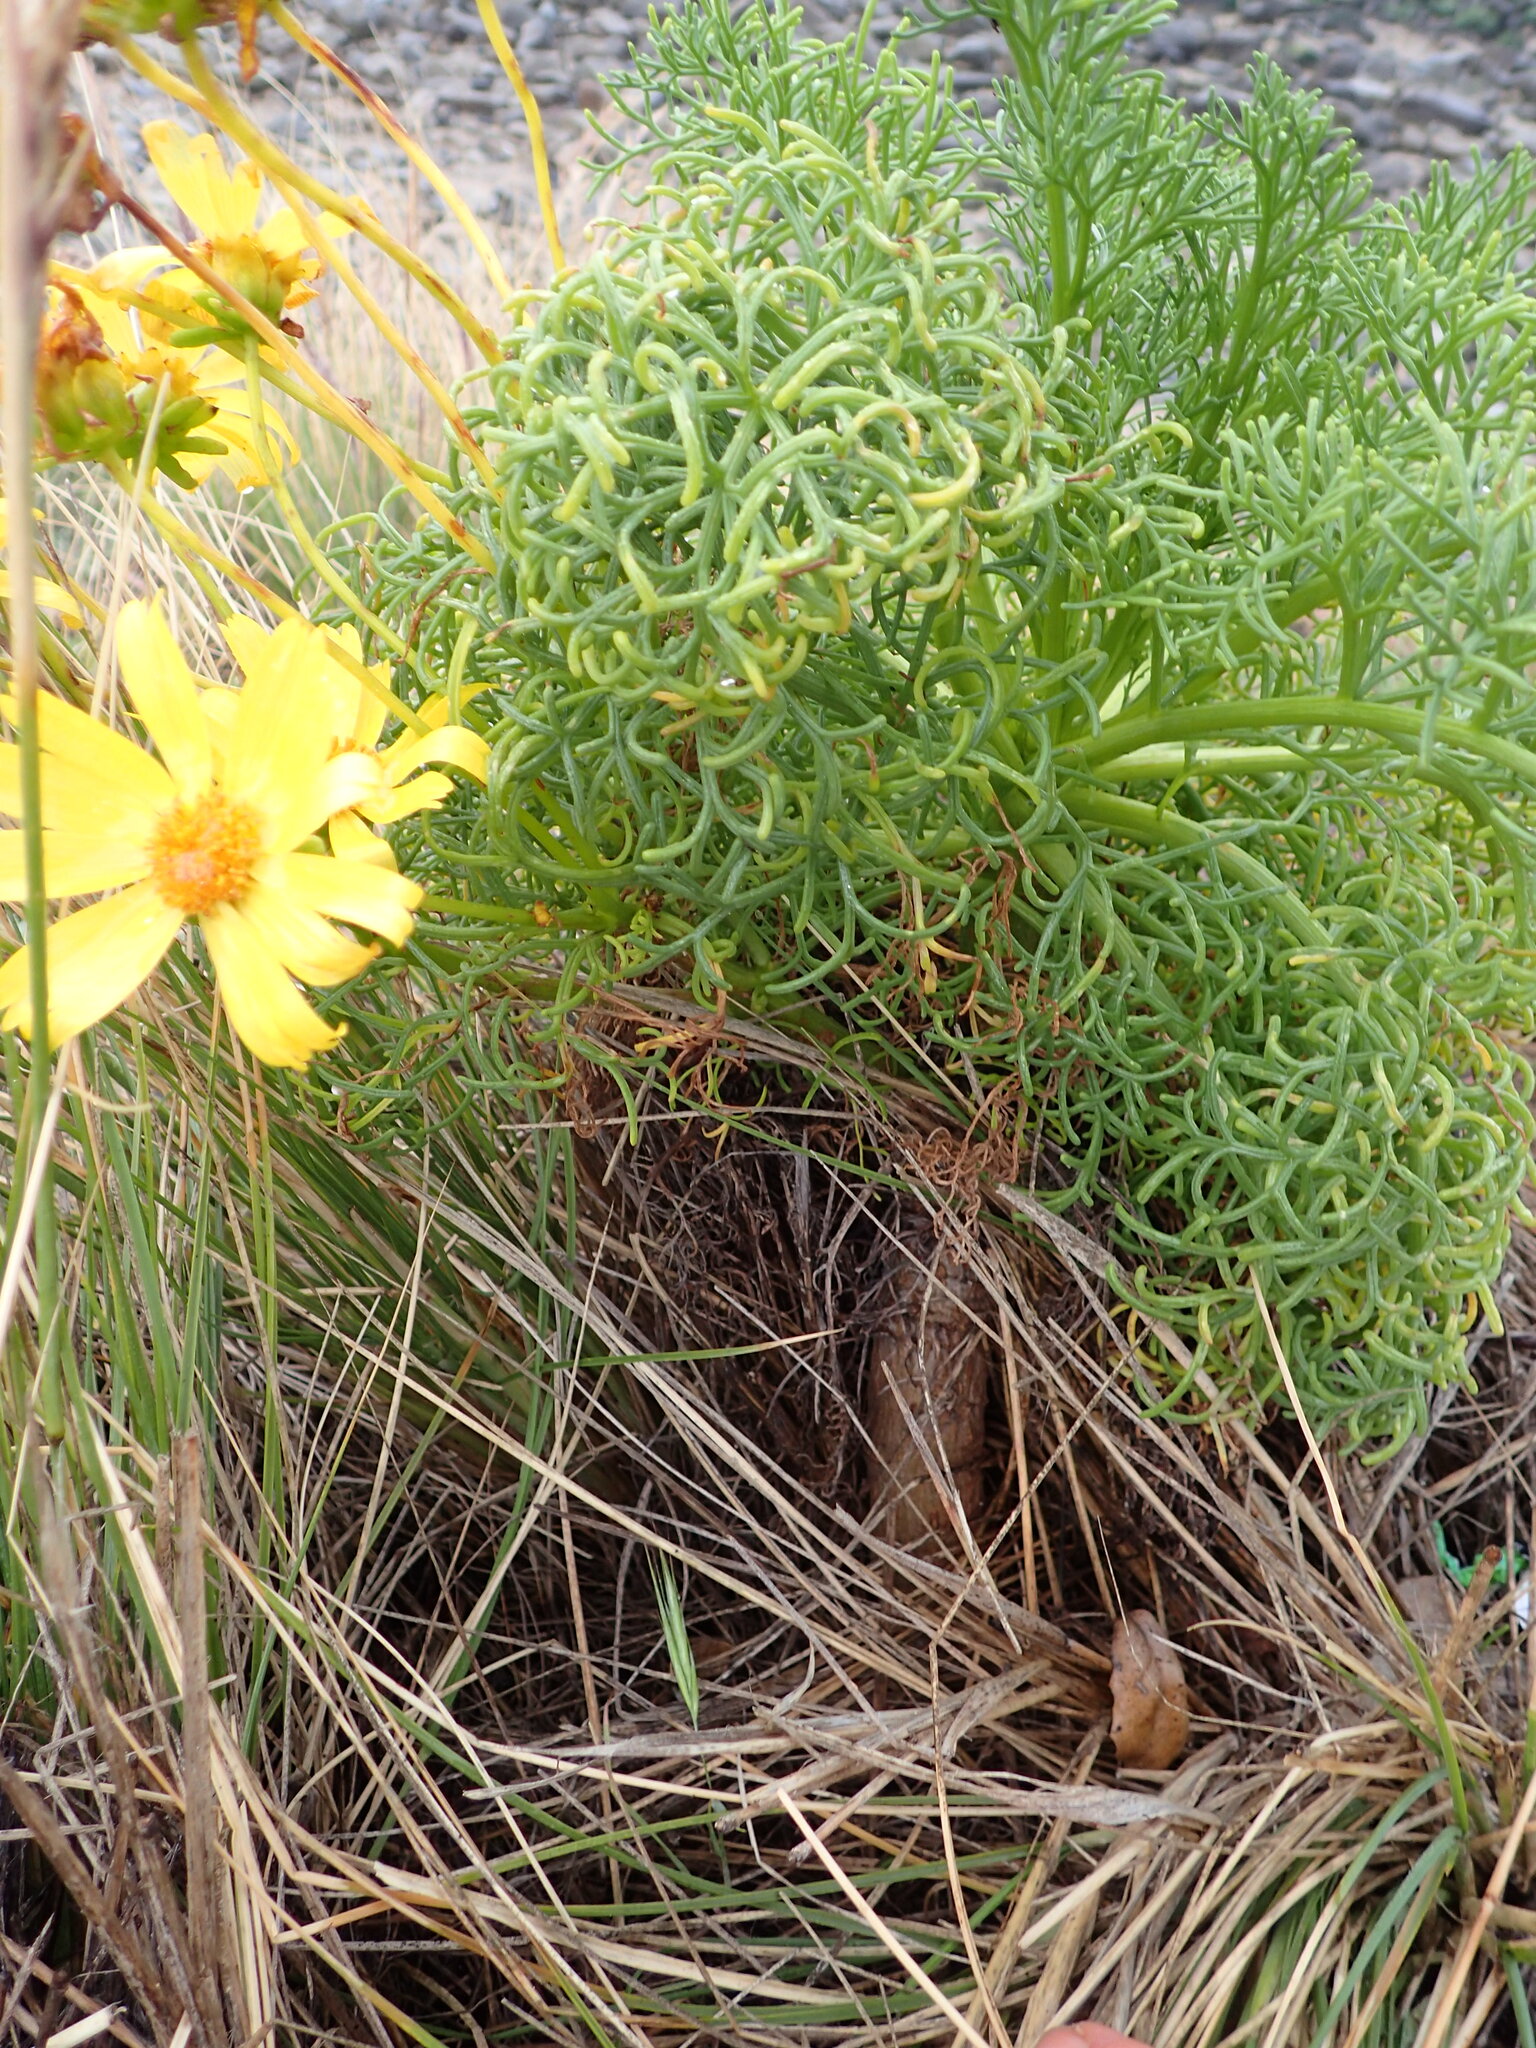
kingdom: Plantae
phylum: Tracheophyta
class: Magnoliopsida
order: Asterales
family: Asteraceae
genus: Coreopsis
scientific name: Coreopsis gigantea
